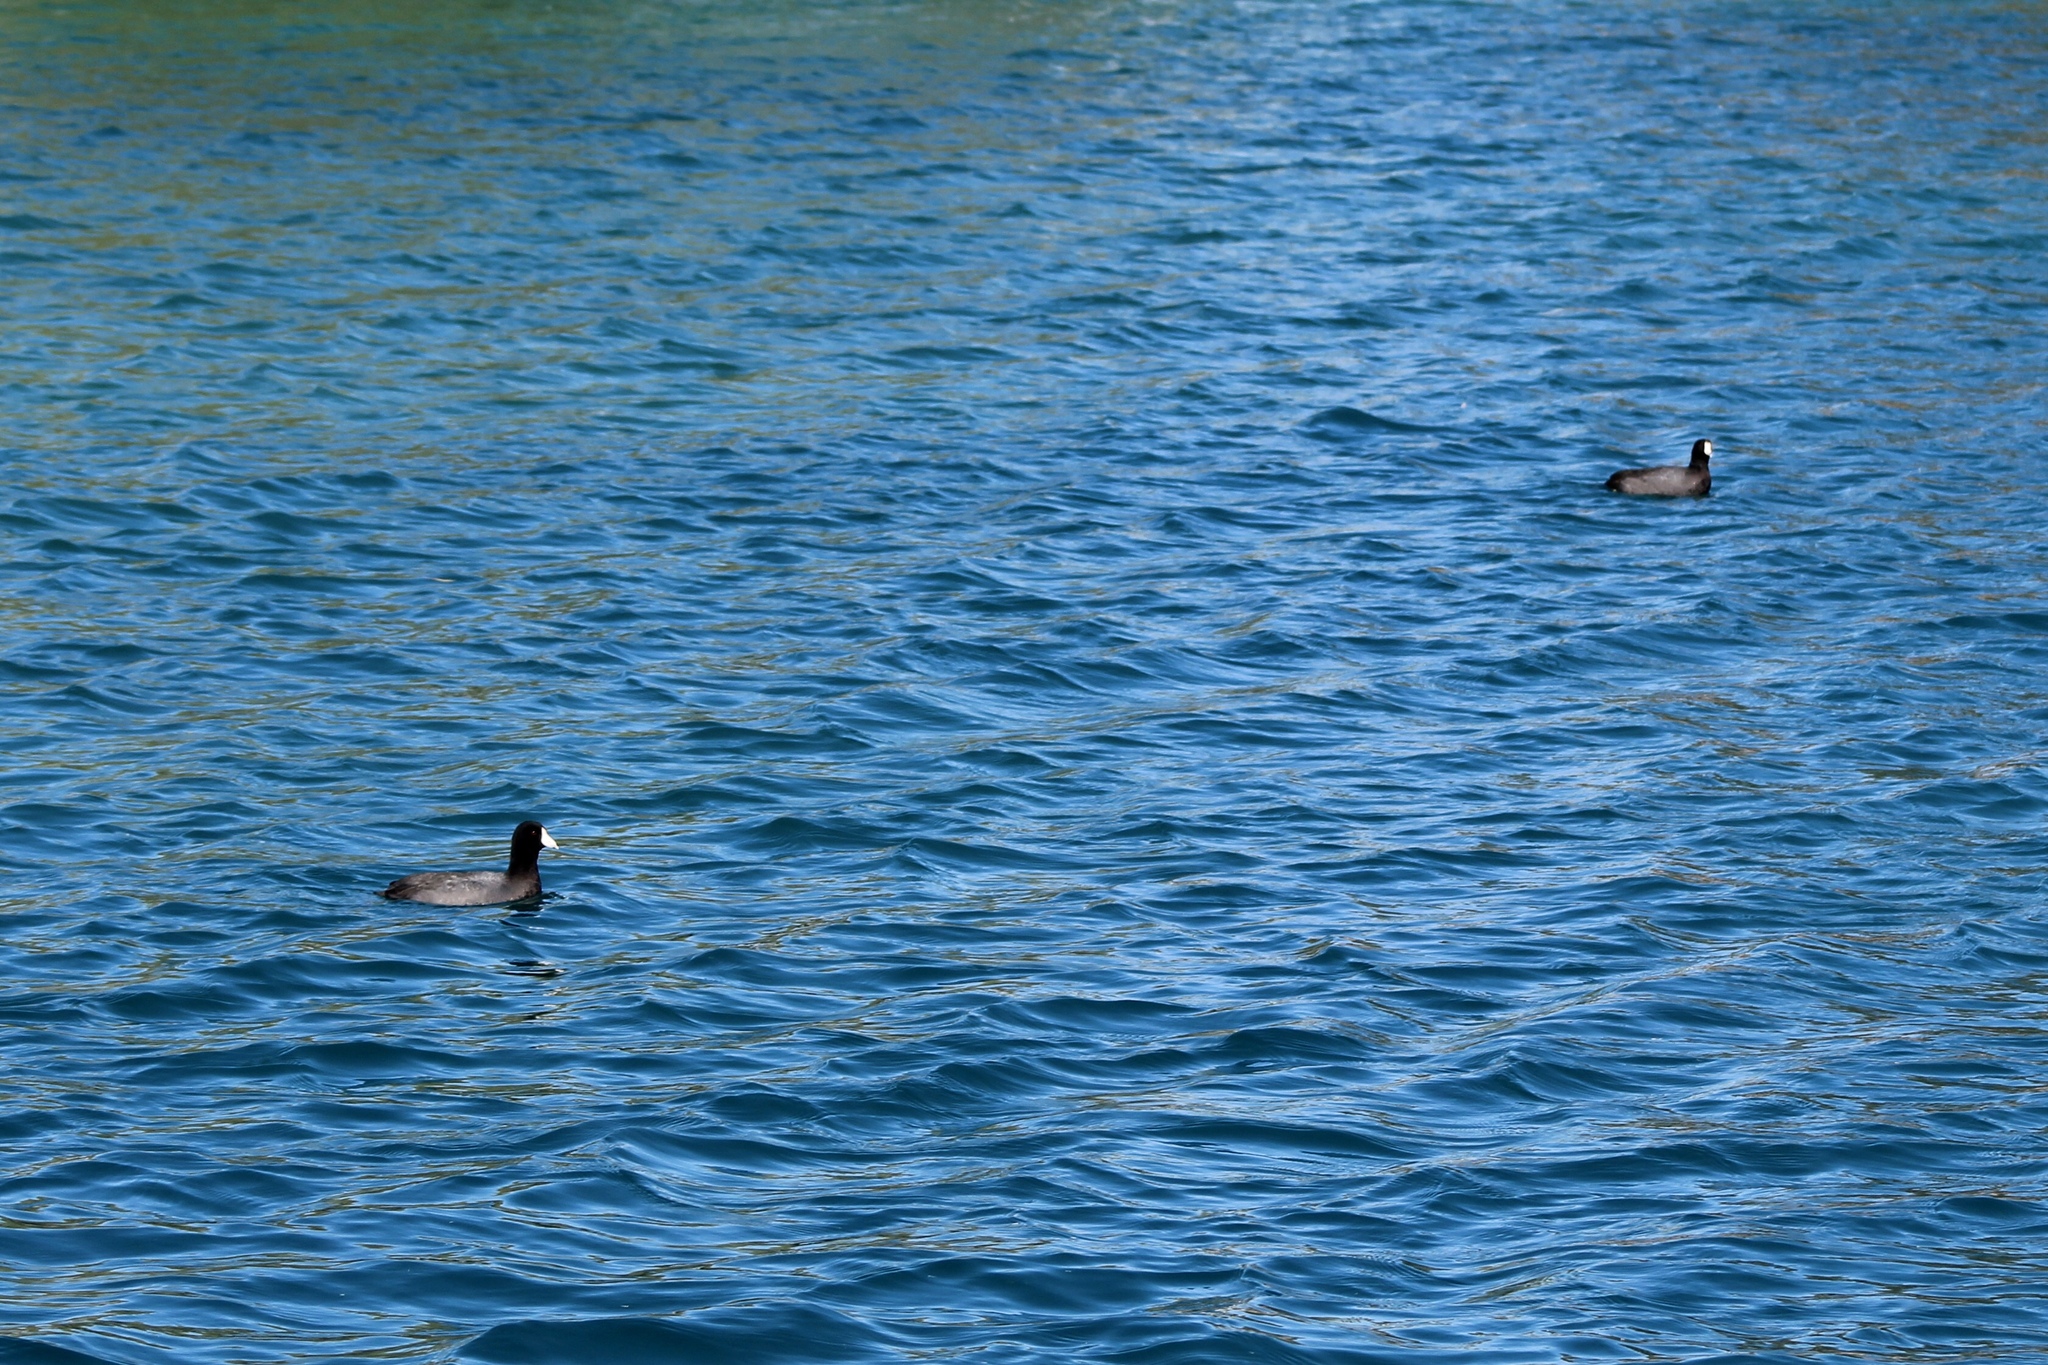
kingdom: Animalia
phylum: Chordata
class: Aves
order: Gruiformes
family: Rallidae
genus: Fulica
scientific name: Fulica americana
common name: American coot
